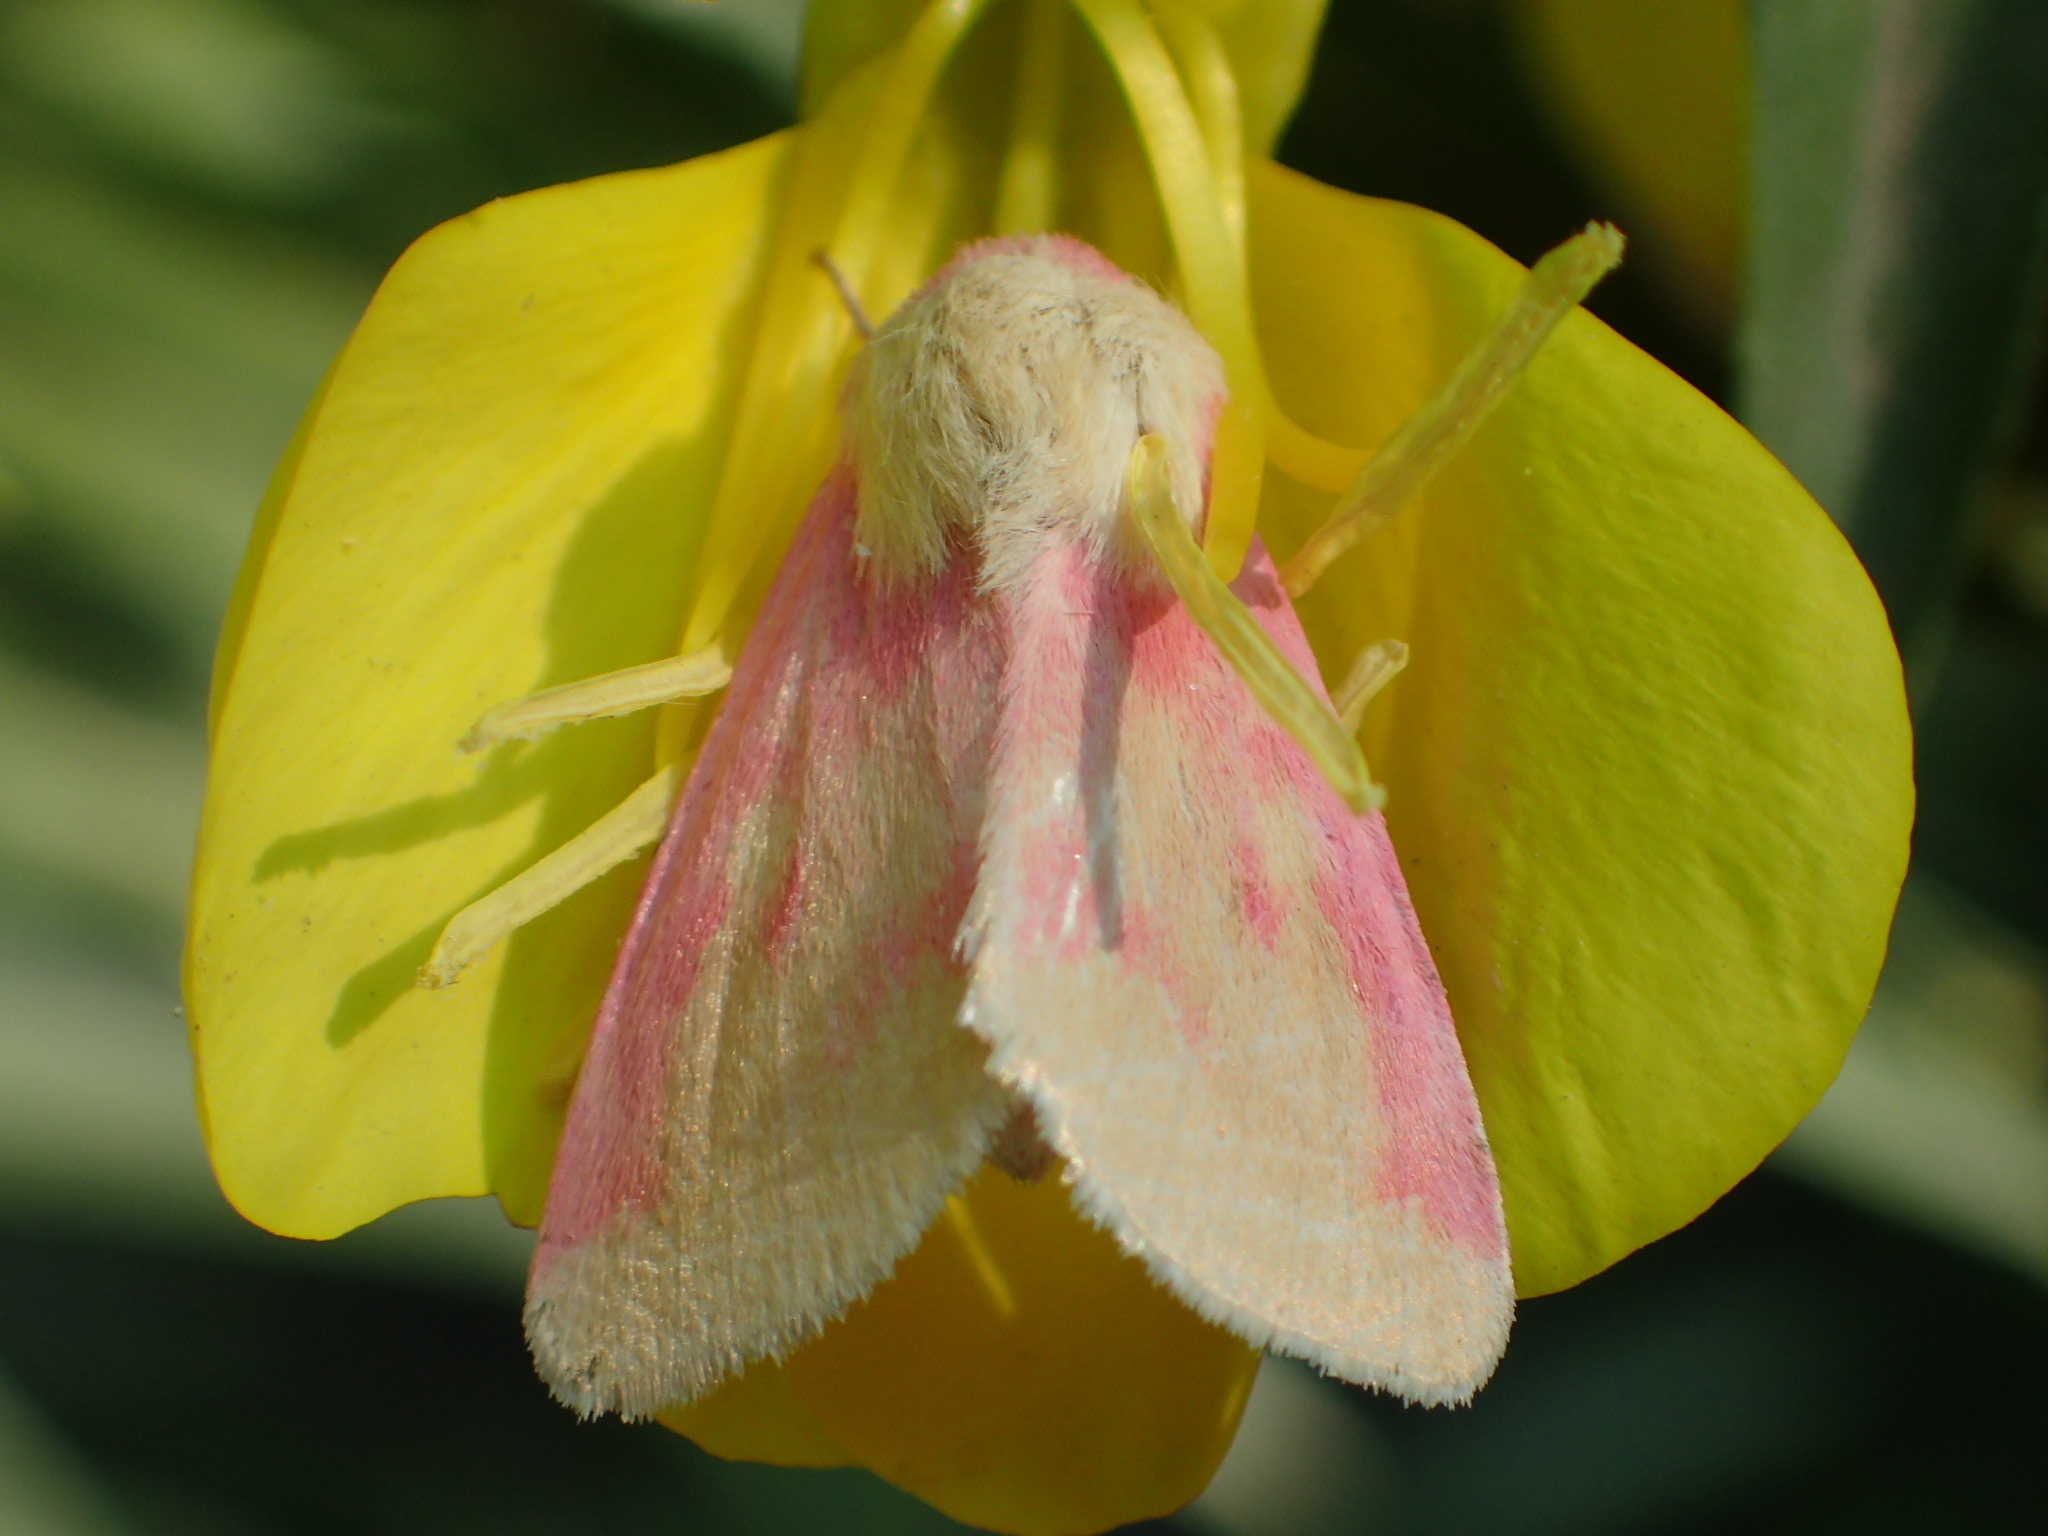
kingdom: Animalia
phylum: Arthropoda
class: Insecta
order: Lepidoptera
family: Noctuidae
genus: Schinia
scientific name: Schinia florida
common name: Primrose moth
